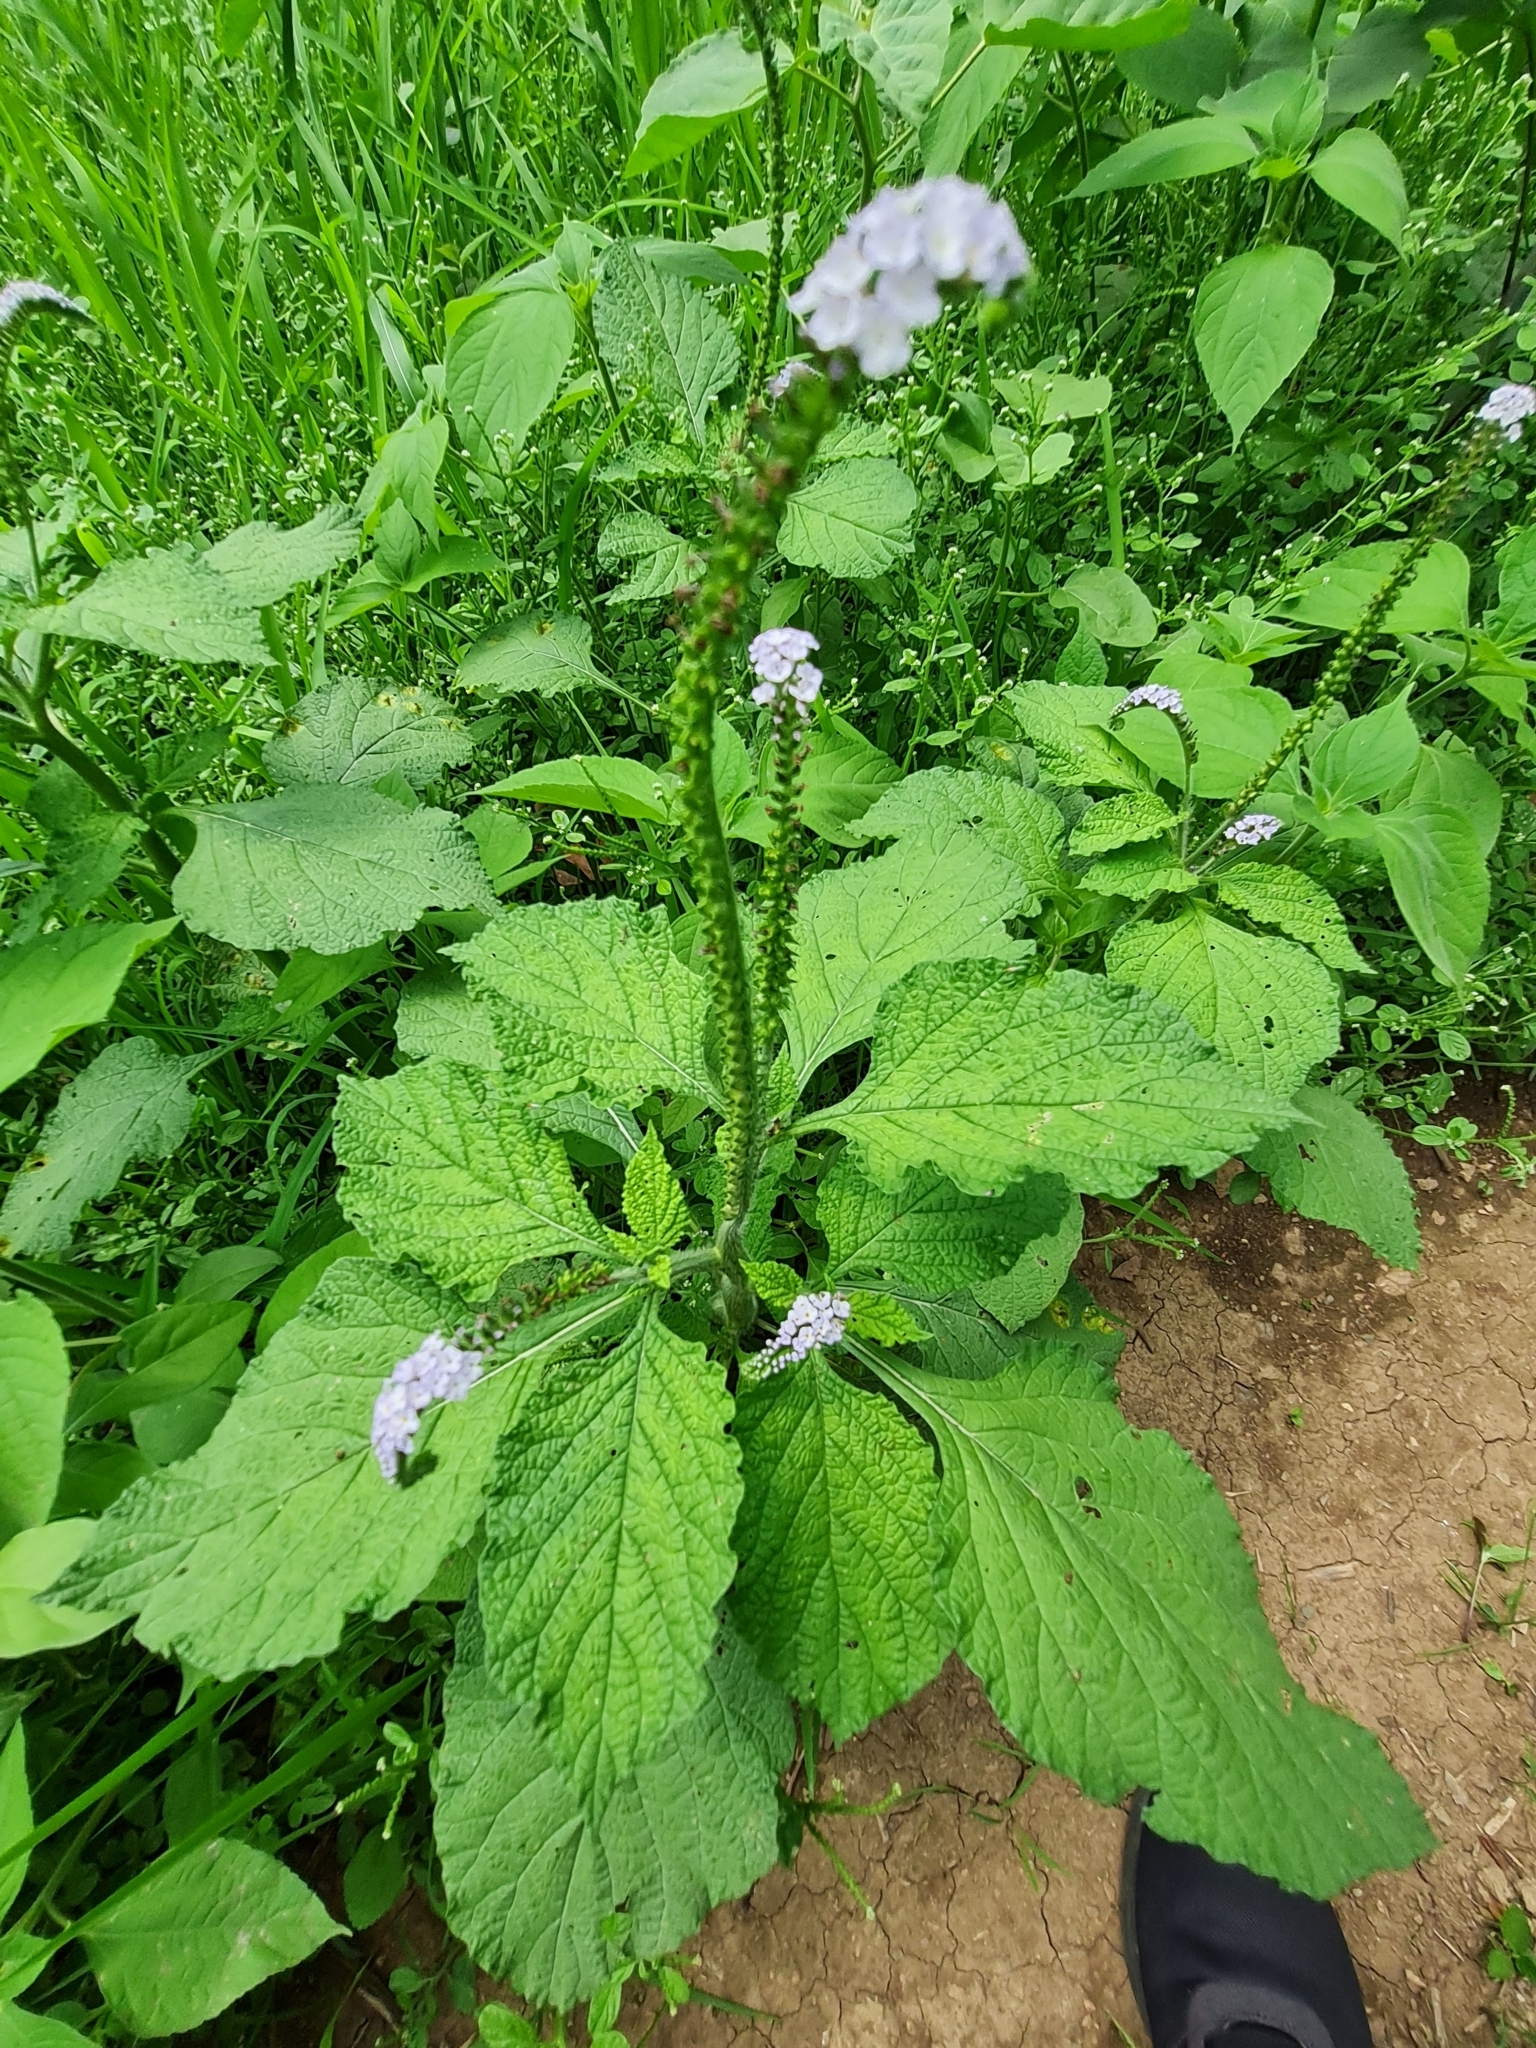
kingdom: Plantae
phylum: Tracheophyta
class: Magnoliopsida
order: Boraginales
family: Heliotropiaceae
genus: Heliotropium
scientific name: Heliotropium indicum
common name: Indian heliotrope
